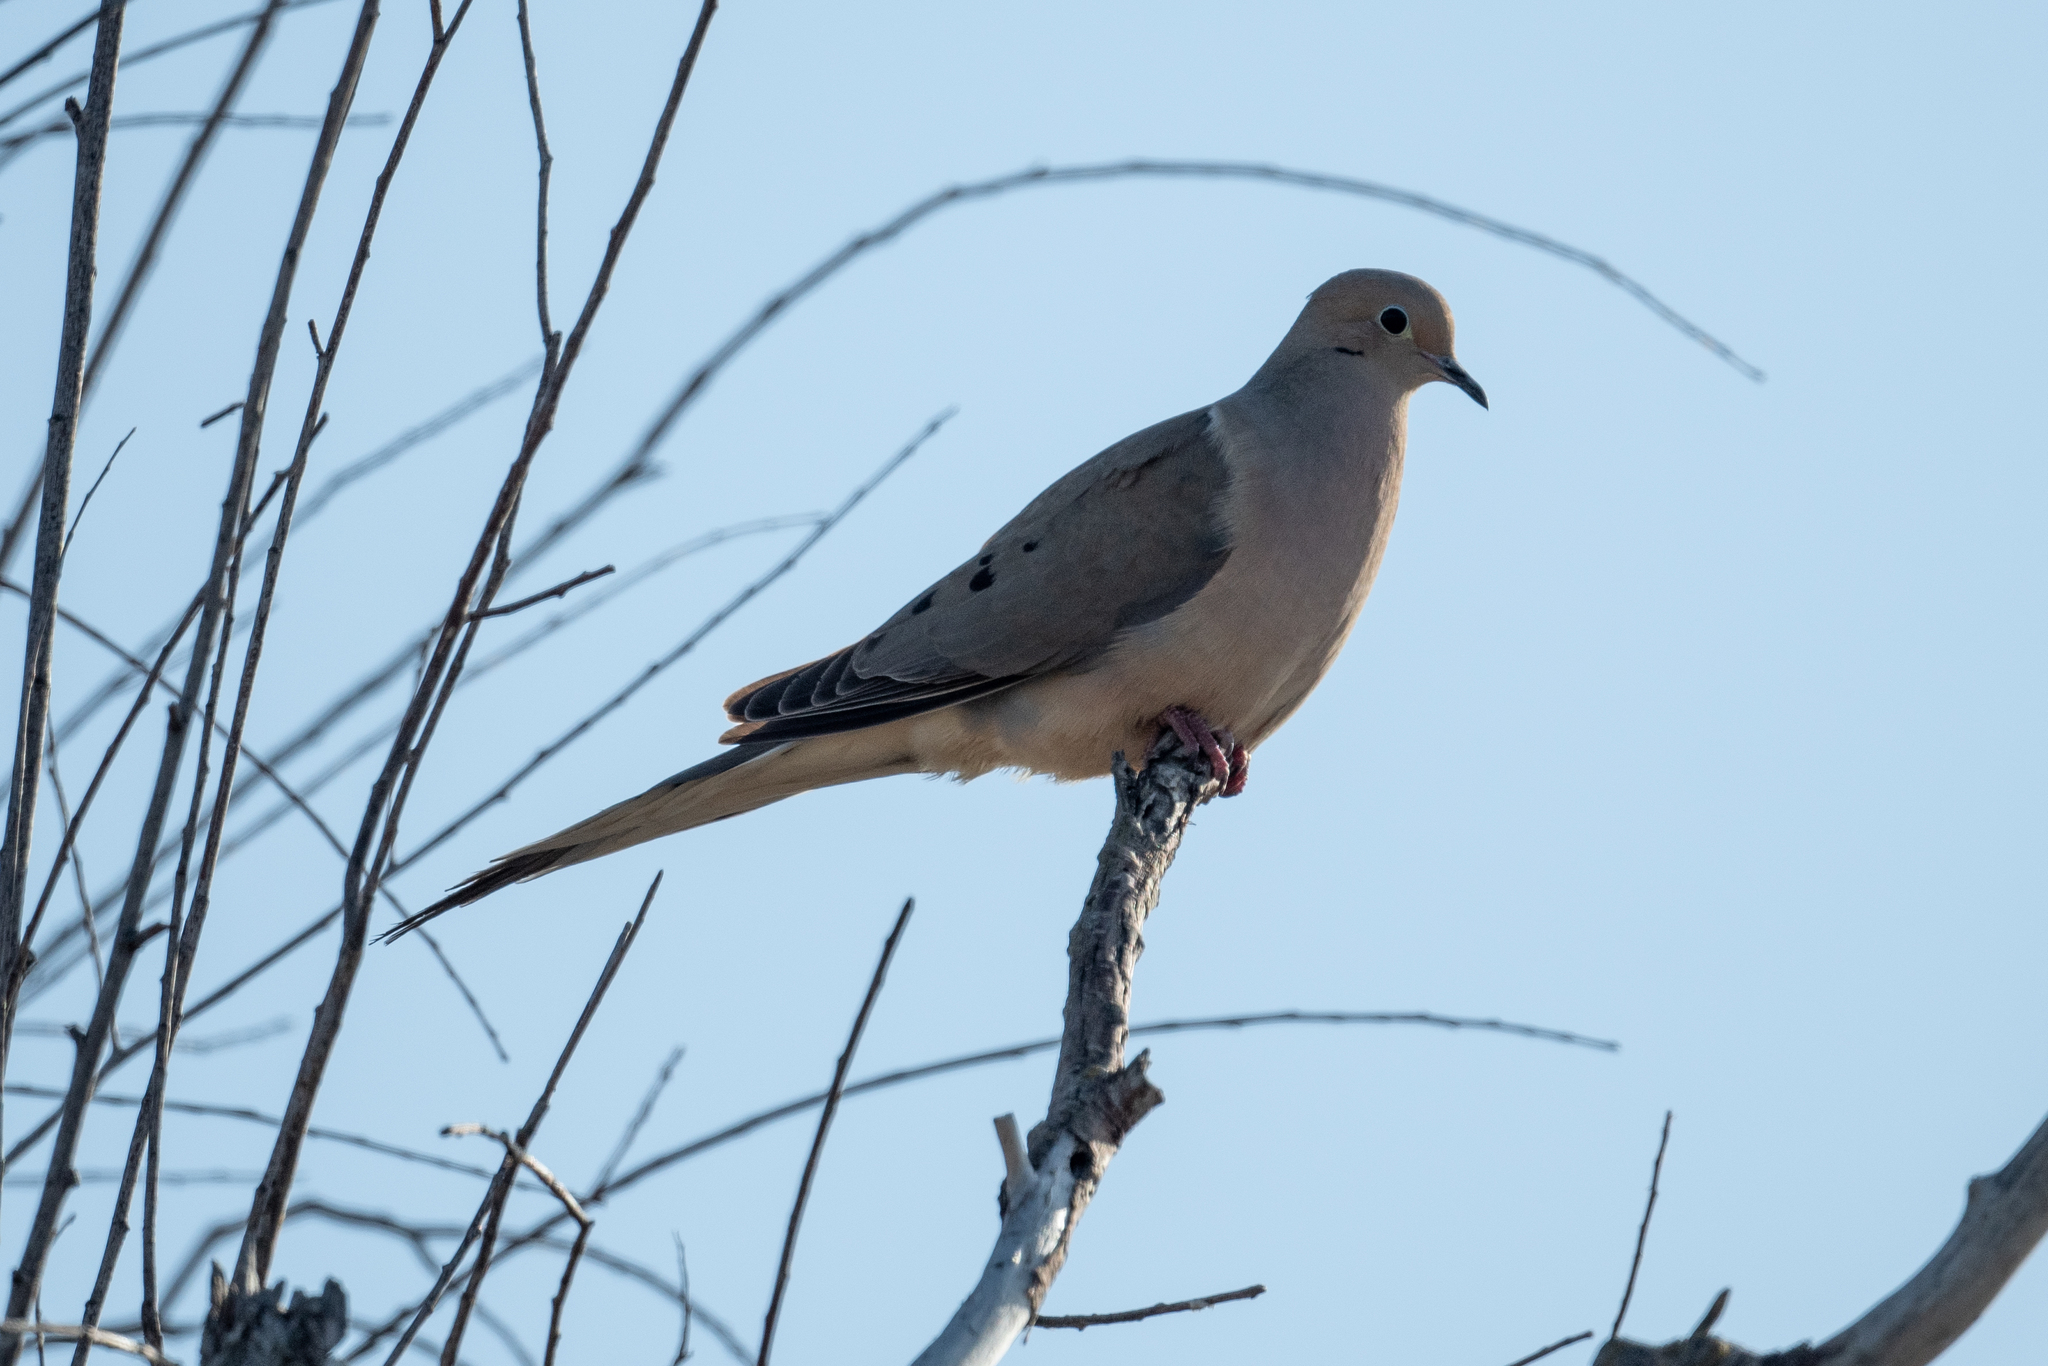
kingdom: Animalia
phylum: Chordata
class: Aves
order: Columbiformes
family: Columbidae
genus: Zenaida
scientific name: Zenaida macroura
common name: Mourning dove
